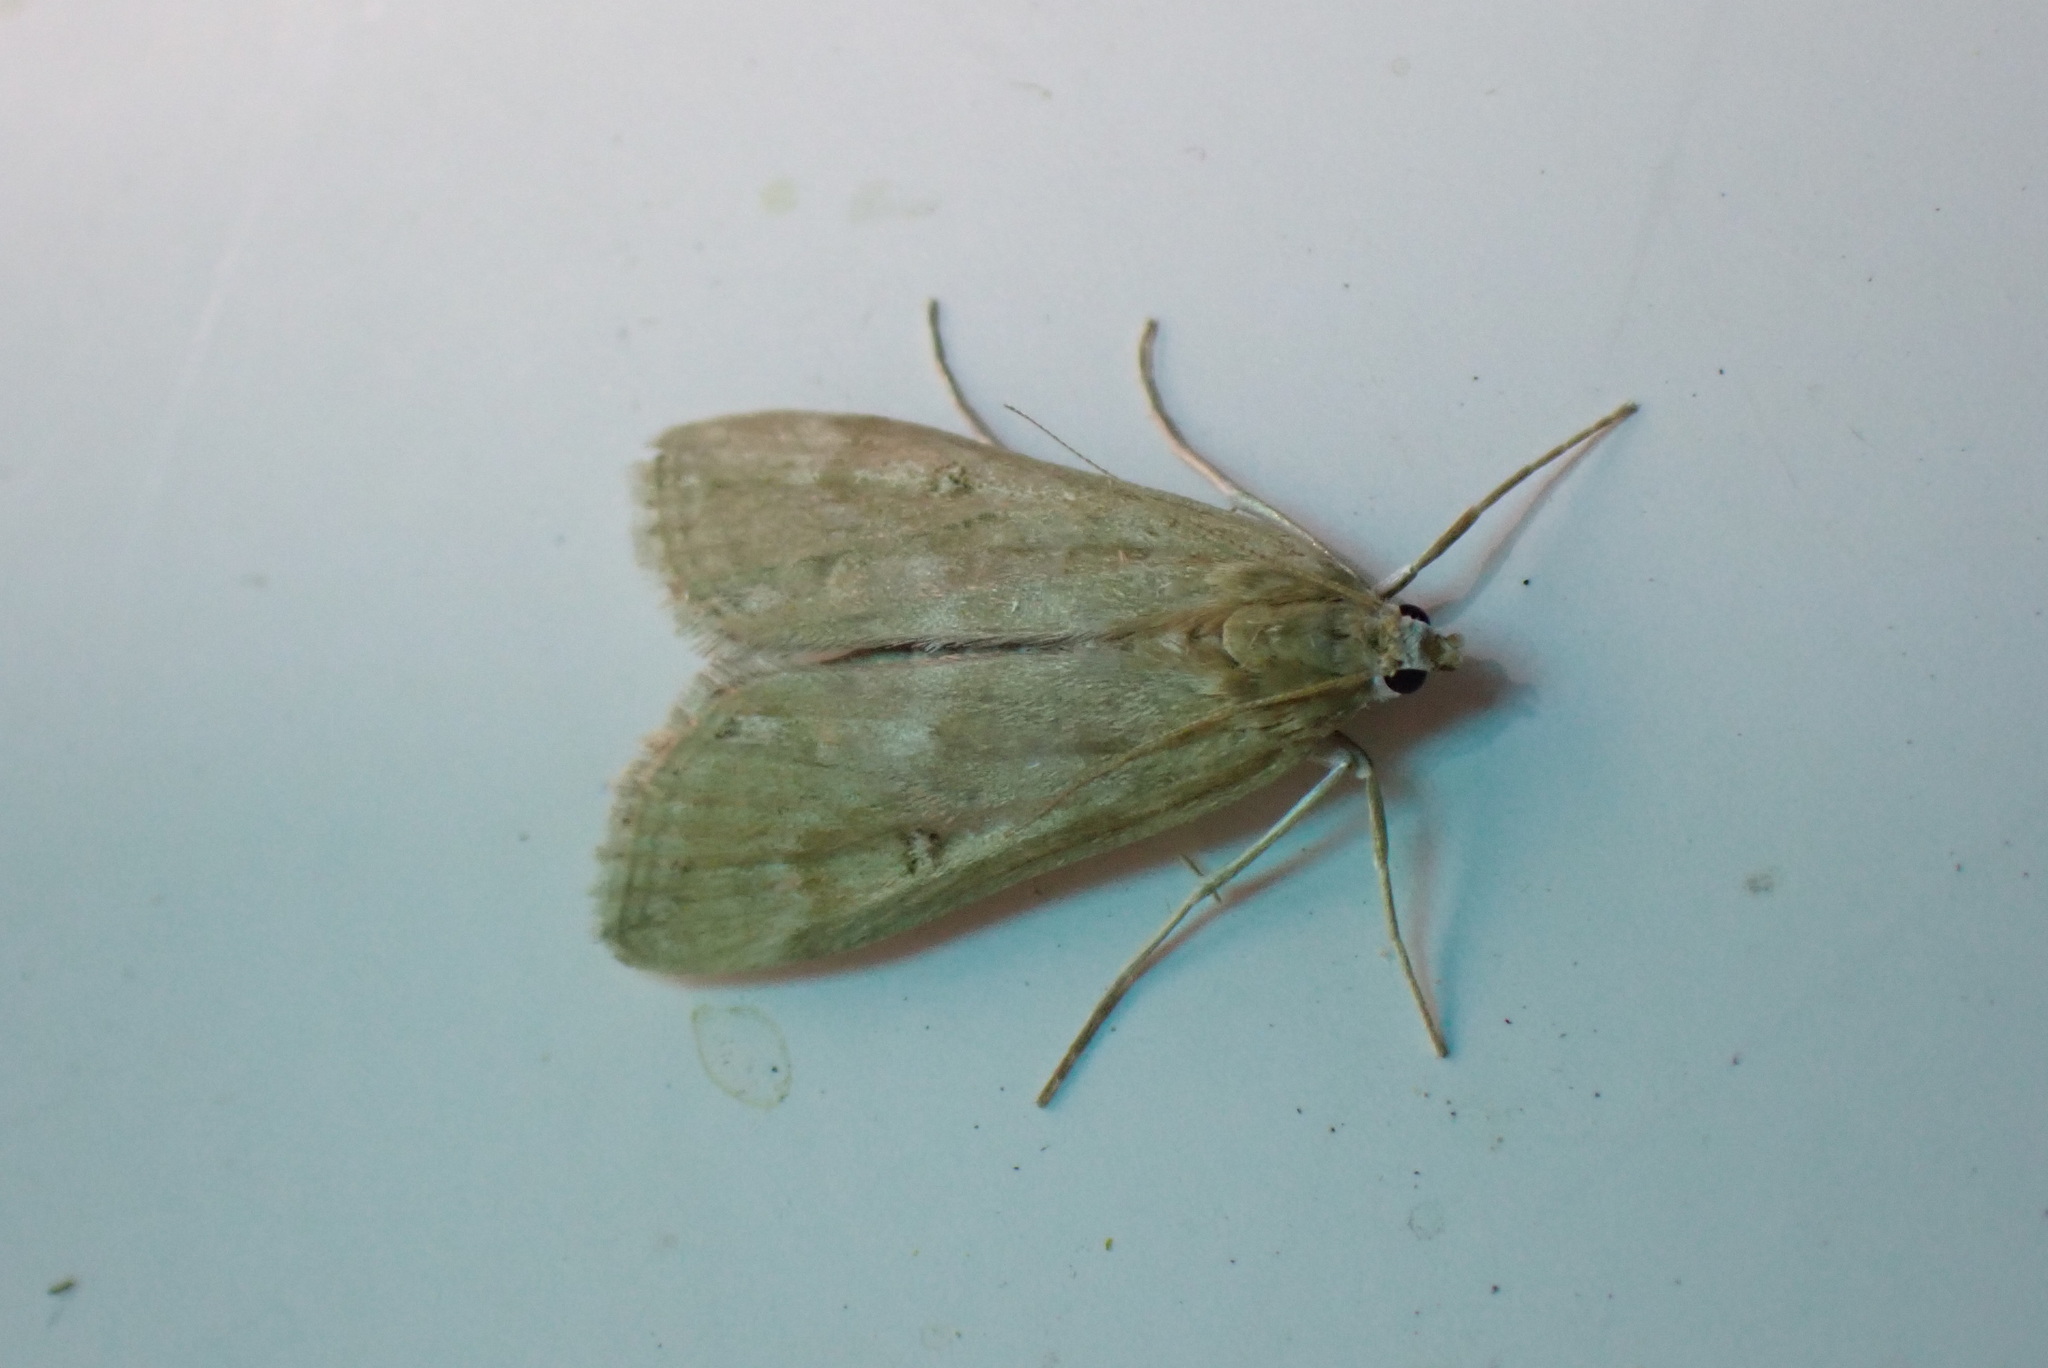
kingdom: Animalia
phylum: Arthropoda
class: Insecta
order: Lepidoptera
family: Crambidae
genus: Parapoynx
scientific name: Parapoynx stratiotata
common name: Ringed china-mark
